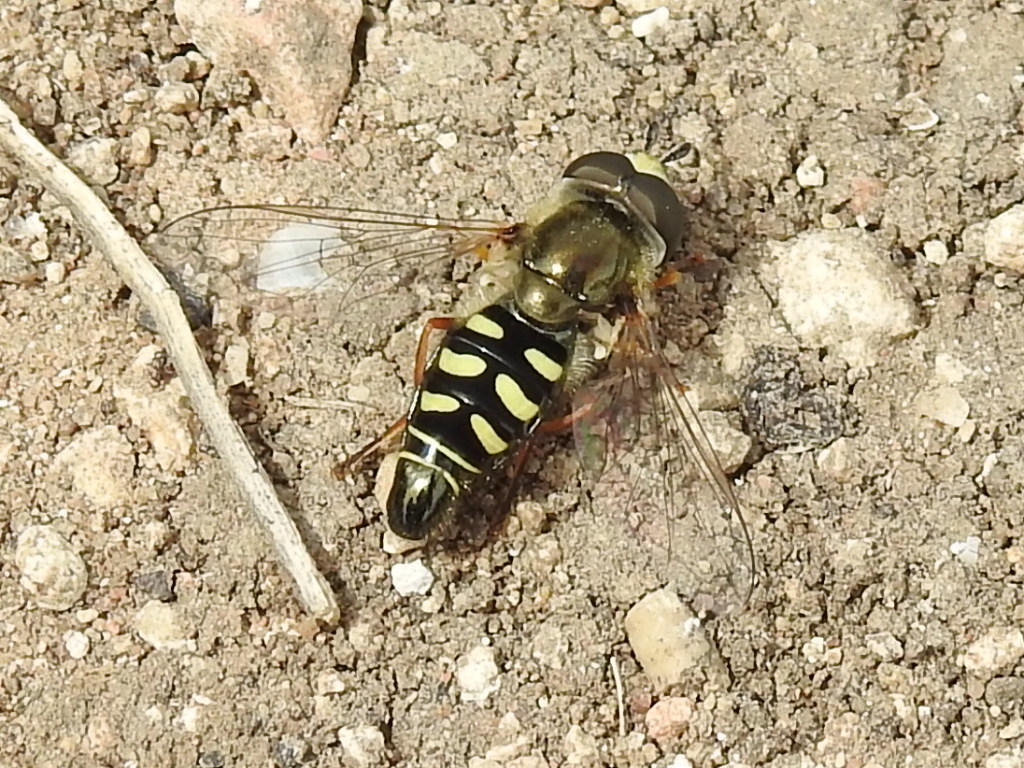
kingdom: Animalia
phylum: Arthropoda
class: Insecta
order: Diptera
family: Syrphidae
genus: Eupeodes
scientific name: Eupeodes volucris
